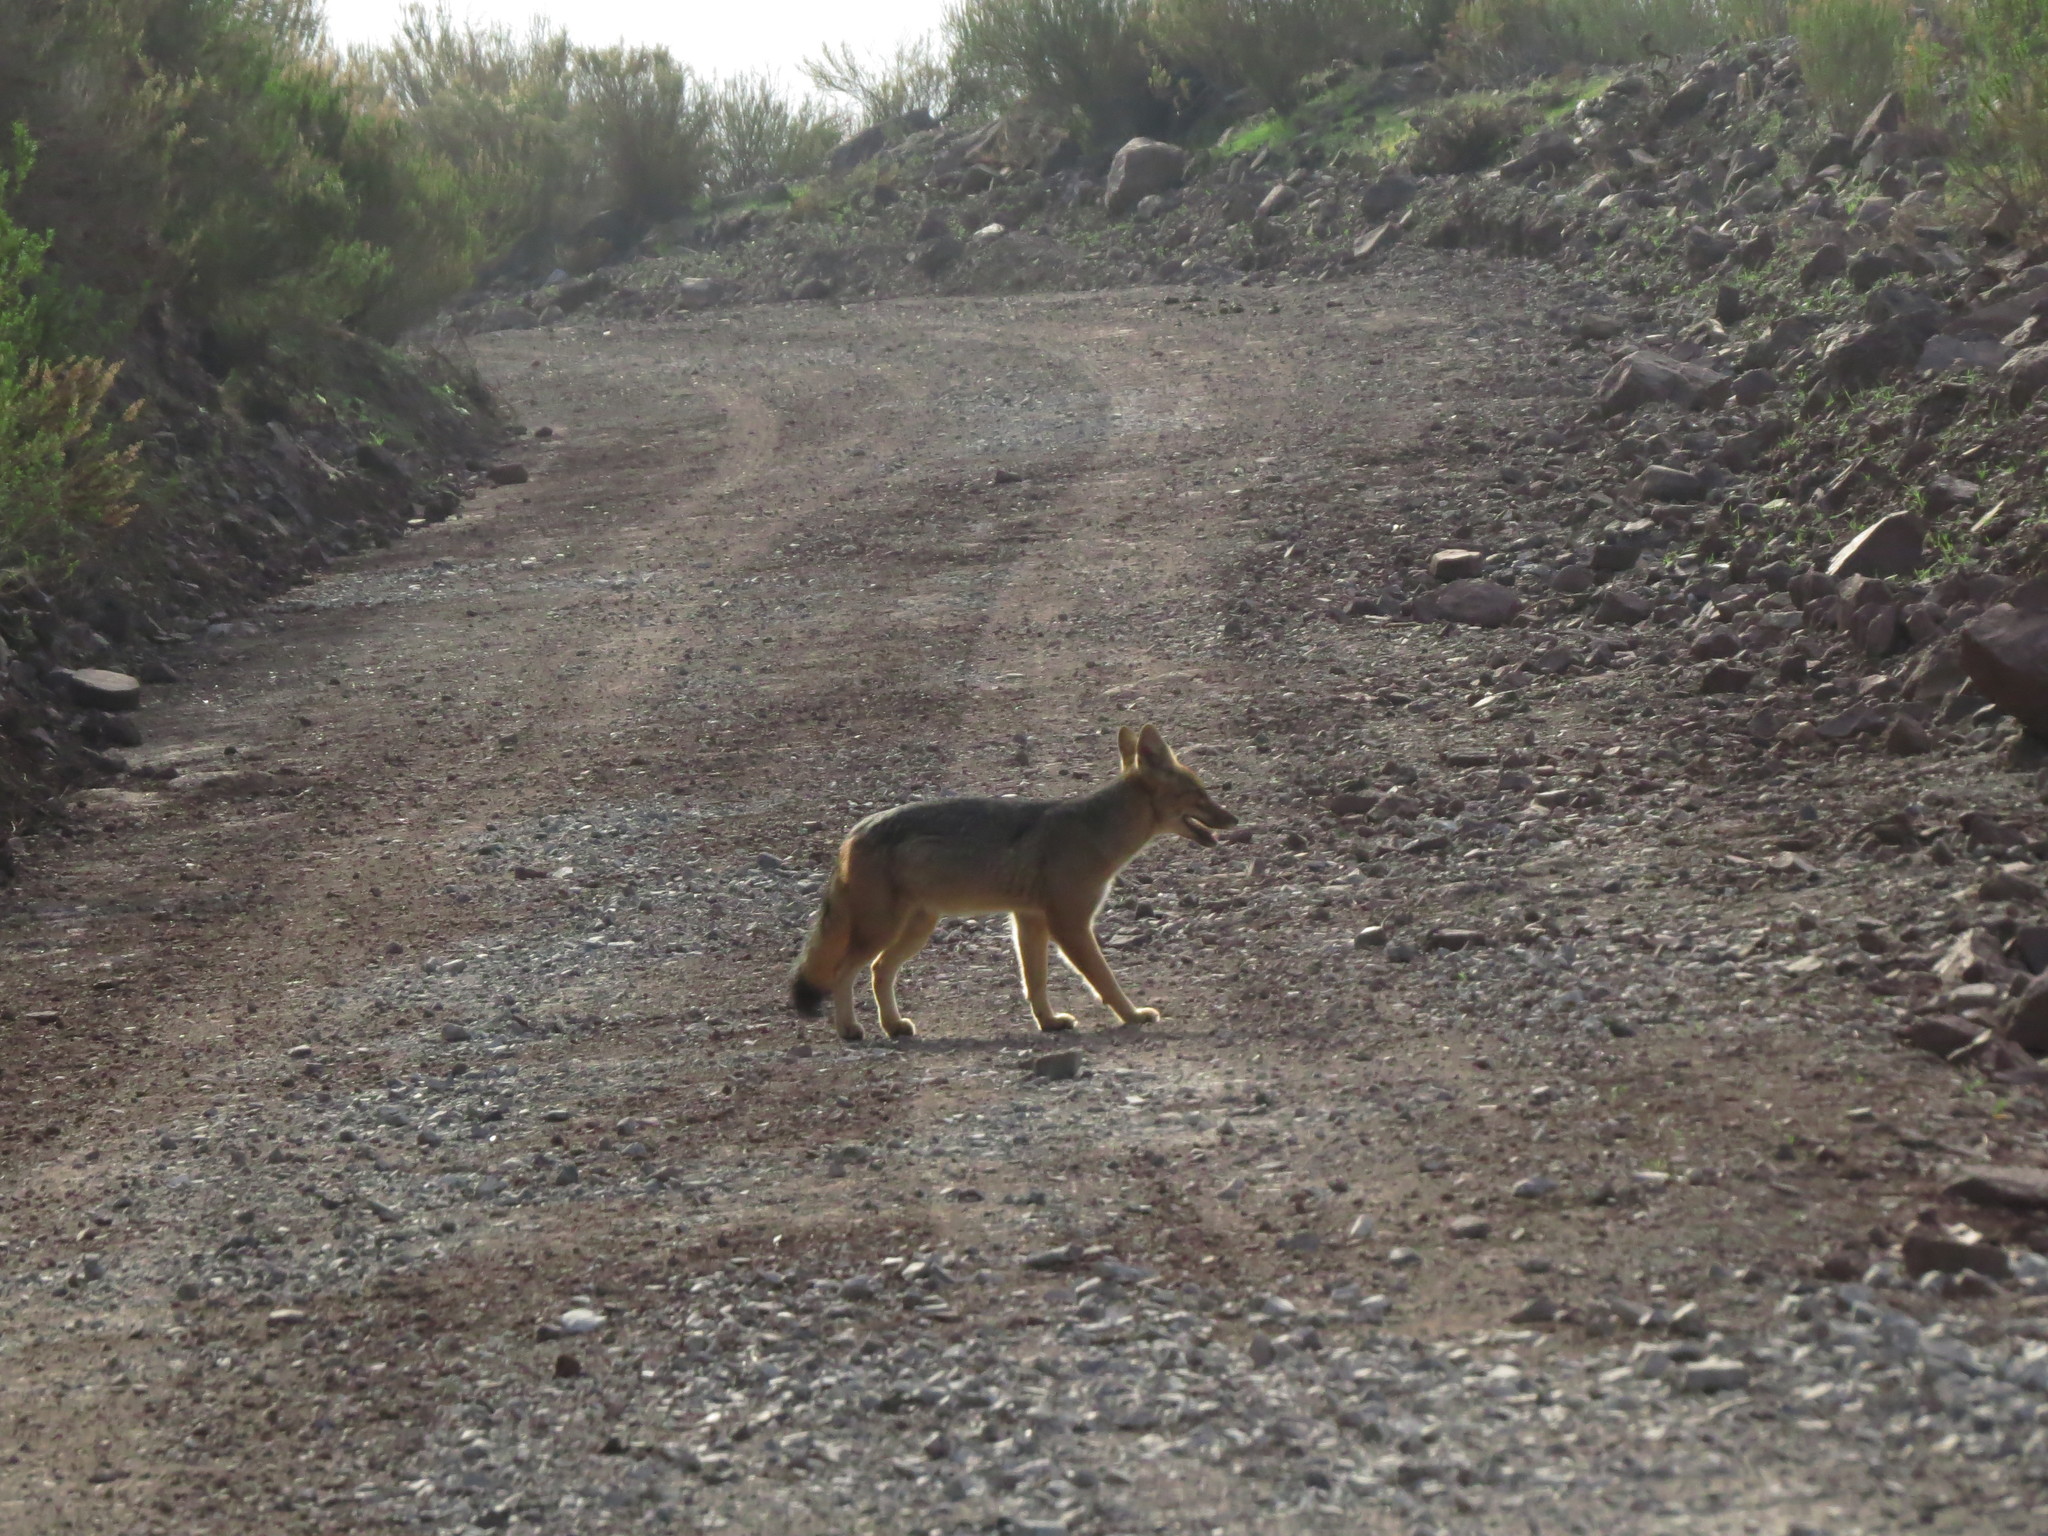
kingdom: Animalia
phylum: Chordata
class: Mammalia
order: Carnivora
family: Canidae
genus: Lycalopex
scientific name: Lycalopex gymnocercus
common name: Pampas fox
